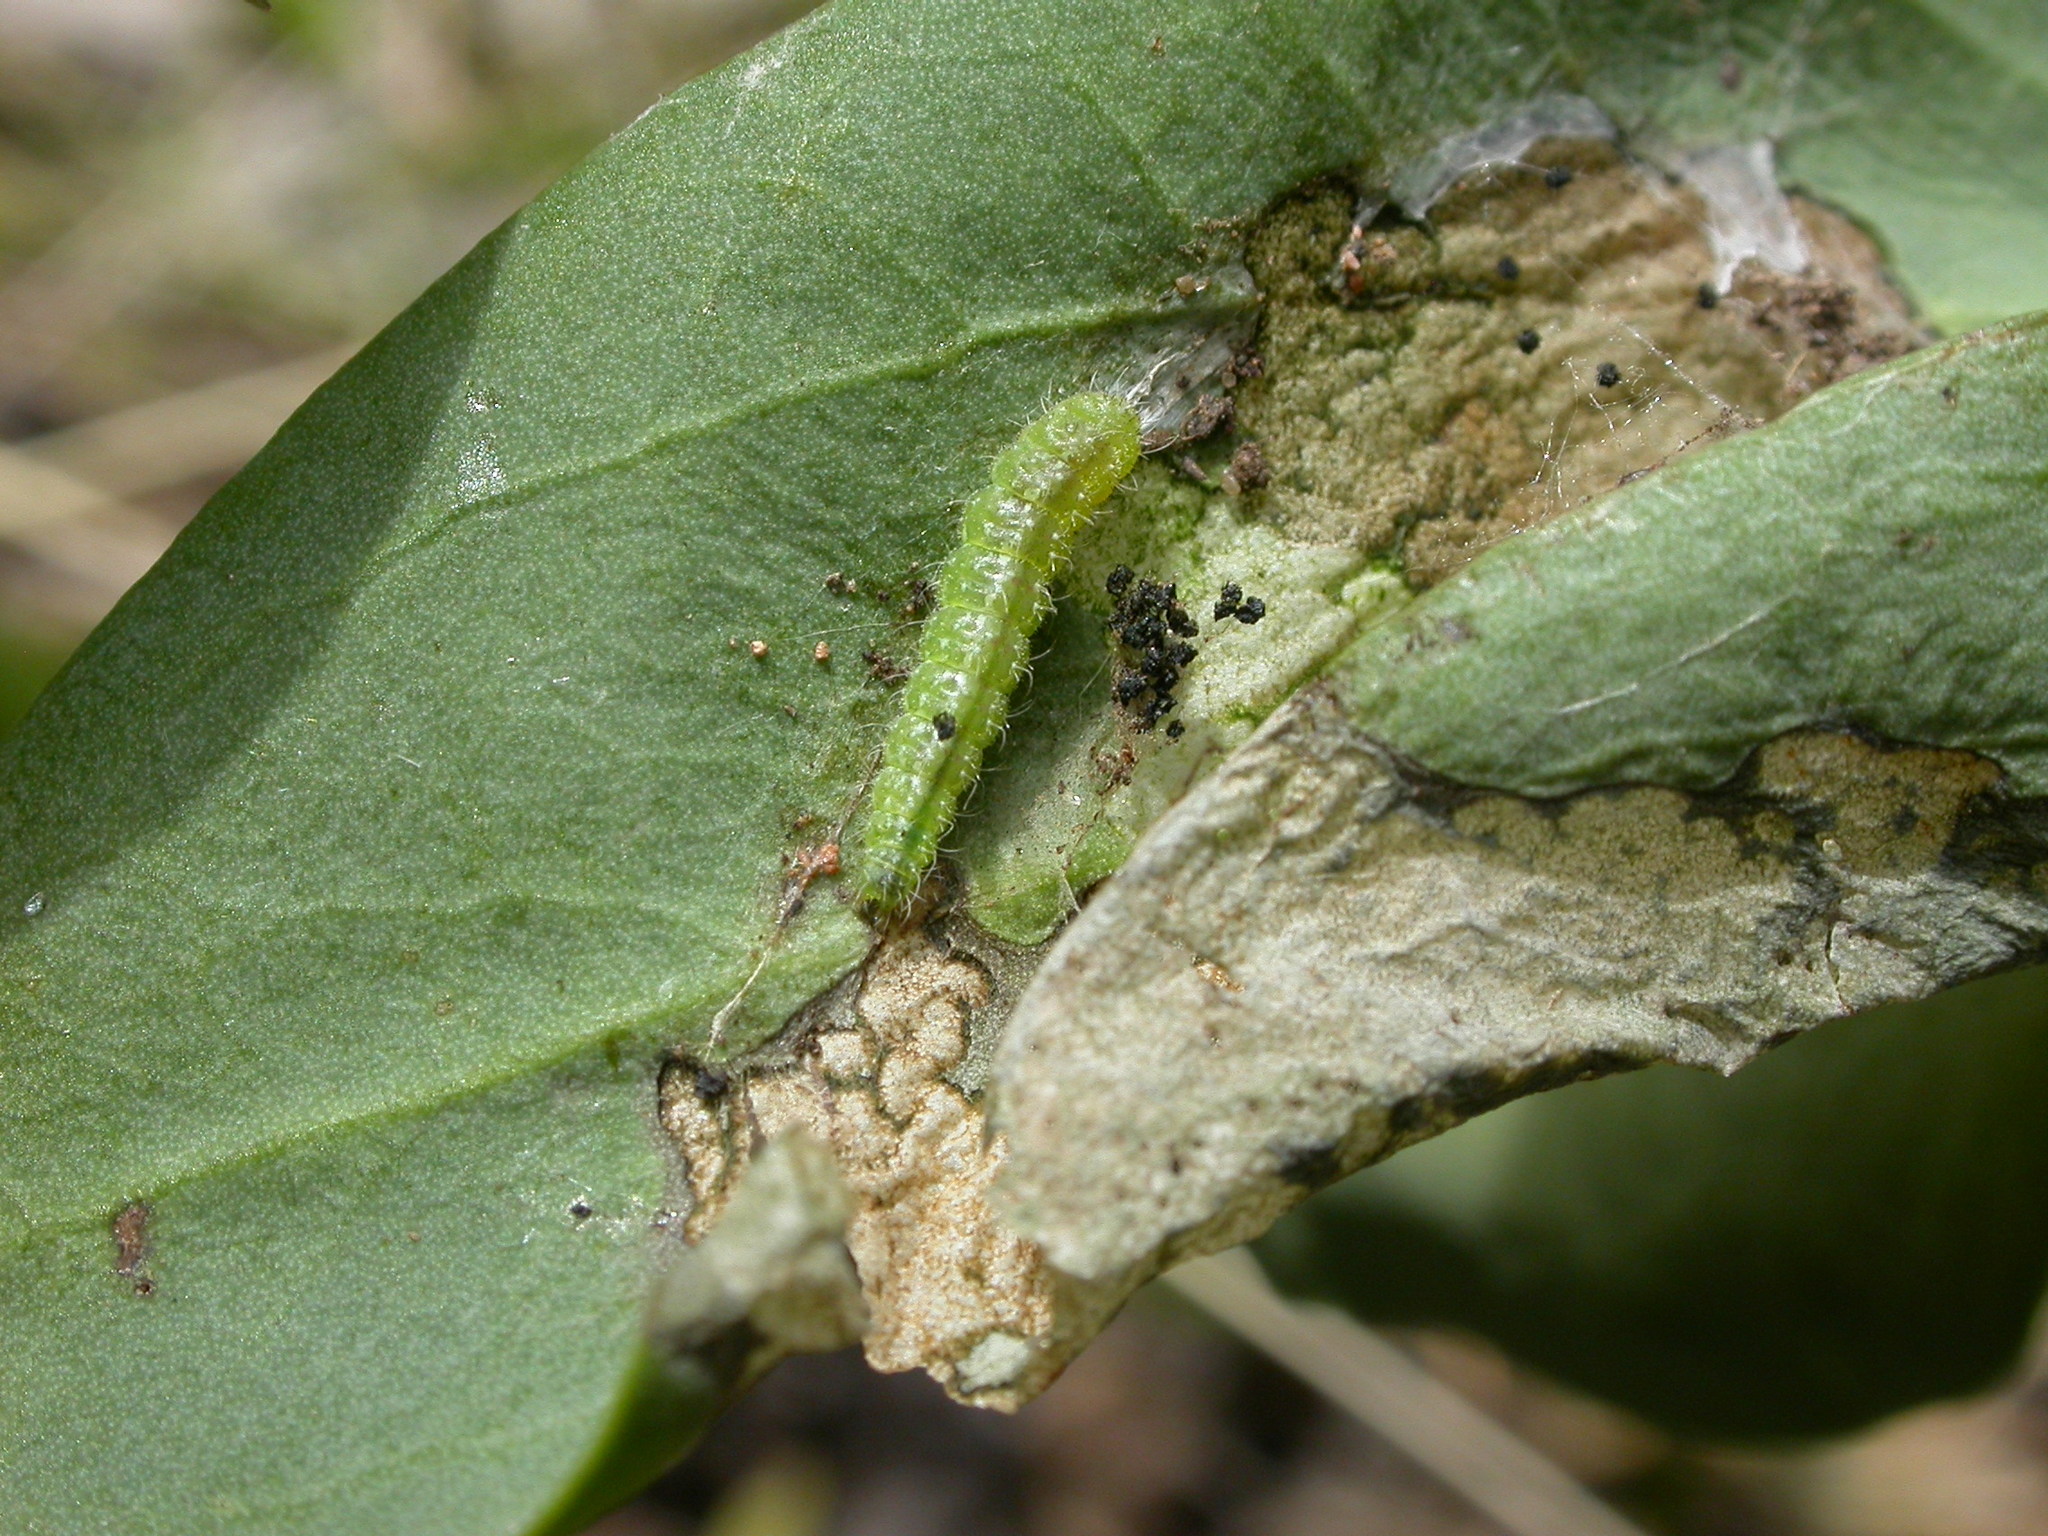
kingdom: Animalia
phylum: Arthropoda
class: Insecta
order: Lepidoptera
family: Pterophoridae
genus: Sinpunctiptilia
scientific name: Sinpunctiptilia emissalis
